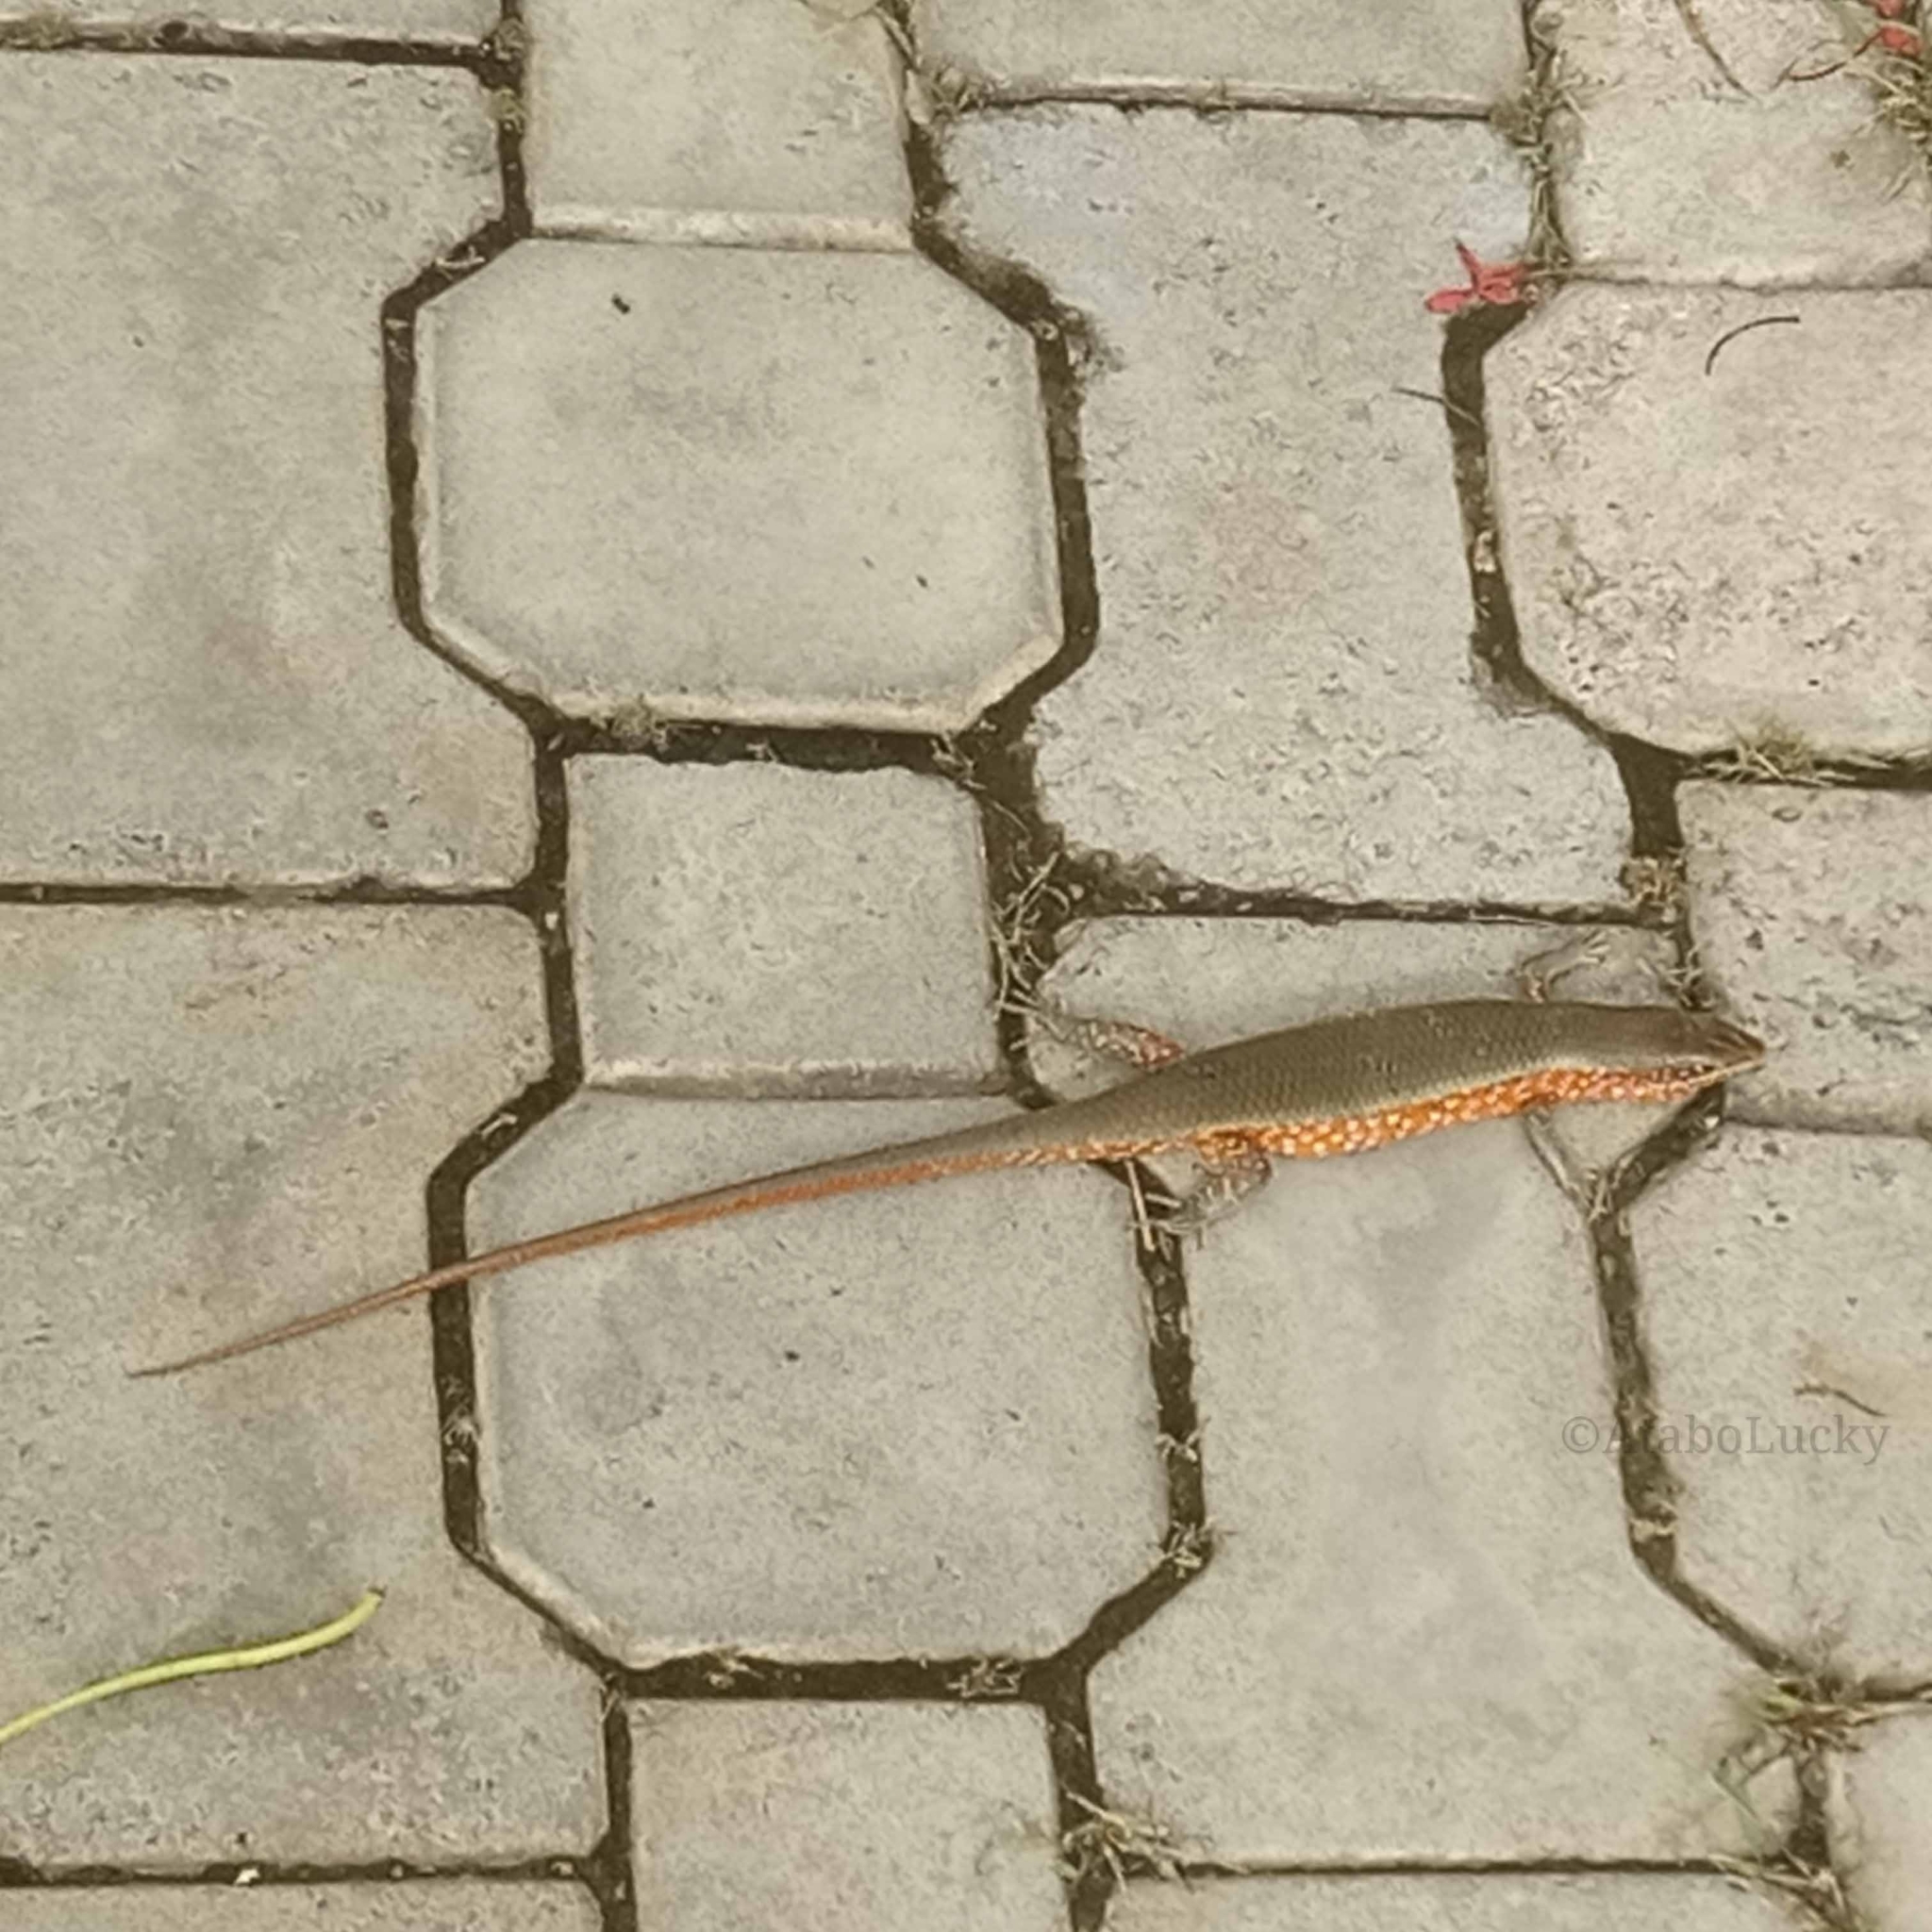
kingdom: Animalia
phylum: Chordata
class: Squamata
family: Scincidae
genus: Trachylepis
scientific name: Trachylepis perrotetii
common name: Teita mabuya
